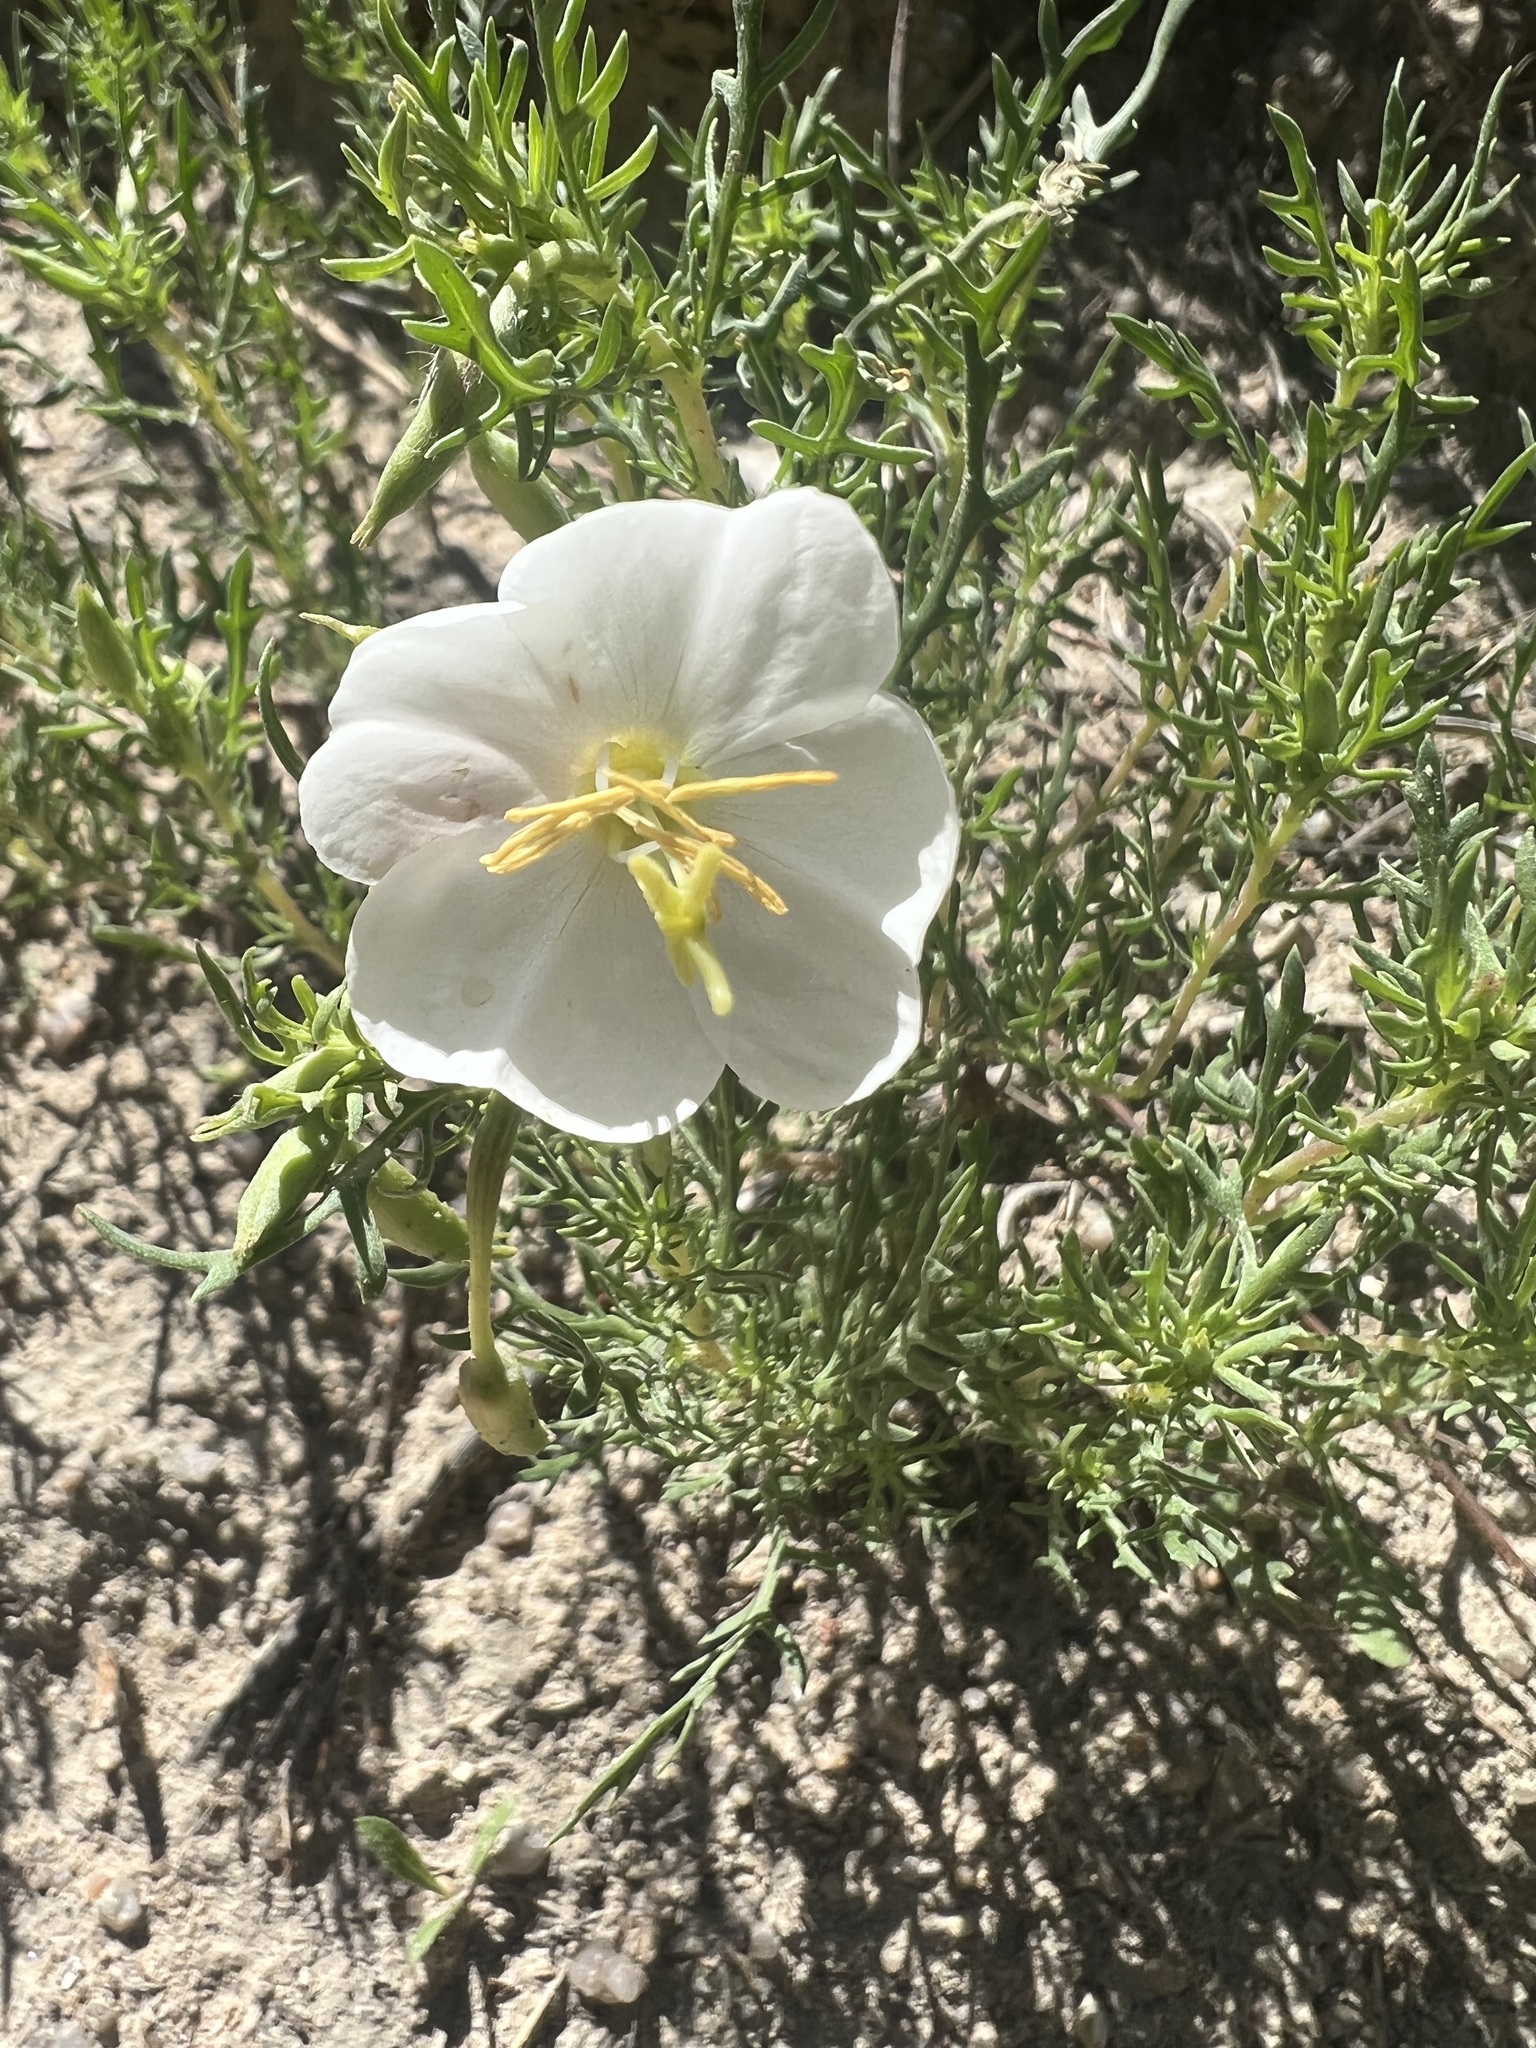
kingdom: Plantae
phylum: Tracheophyta
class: Magnoliopsida
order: Myrtales
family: Onagraceae
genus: Oenothera
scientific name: Oenothera pallida
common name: Pale evening-primrose
